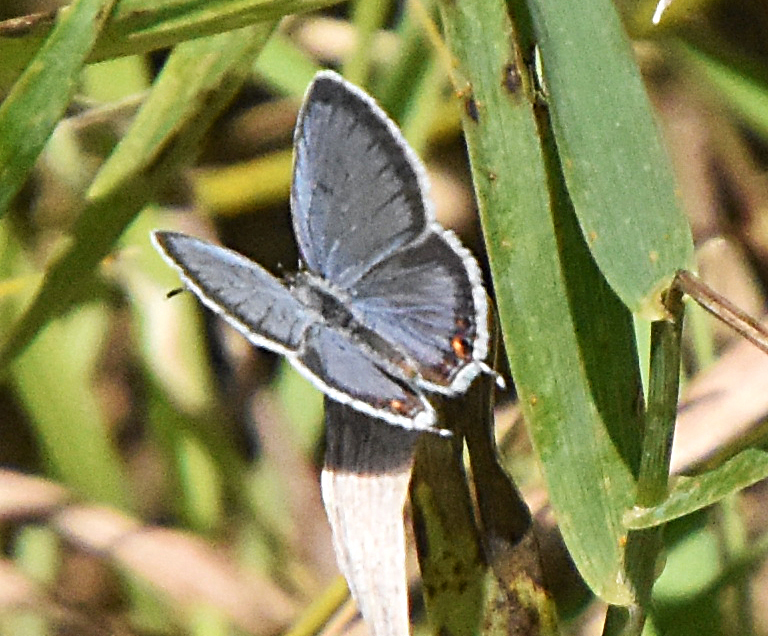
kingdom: Animalia
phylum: Arthropoda
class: Insecta
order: Lepidoptera
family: Lycaenidae
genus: Elkalyce
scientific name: Elkalyce comyntas
